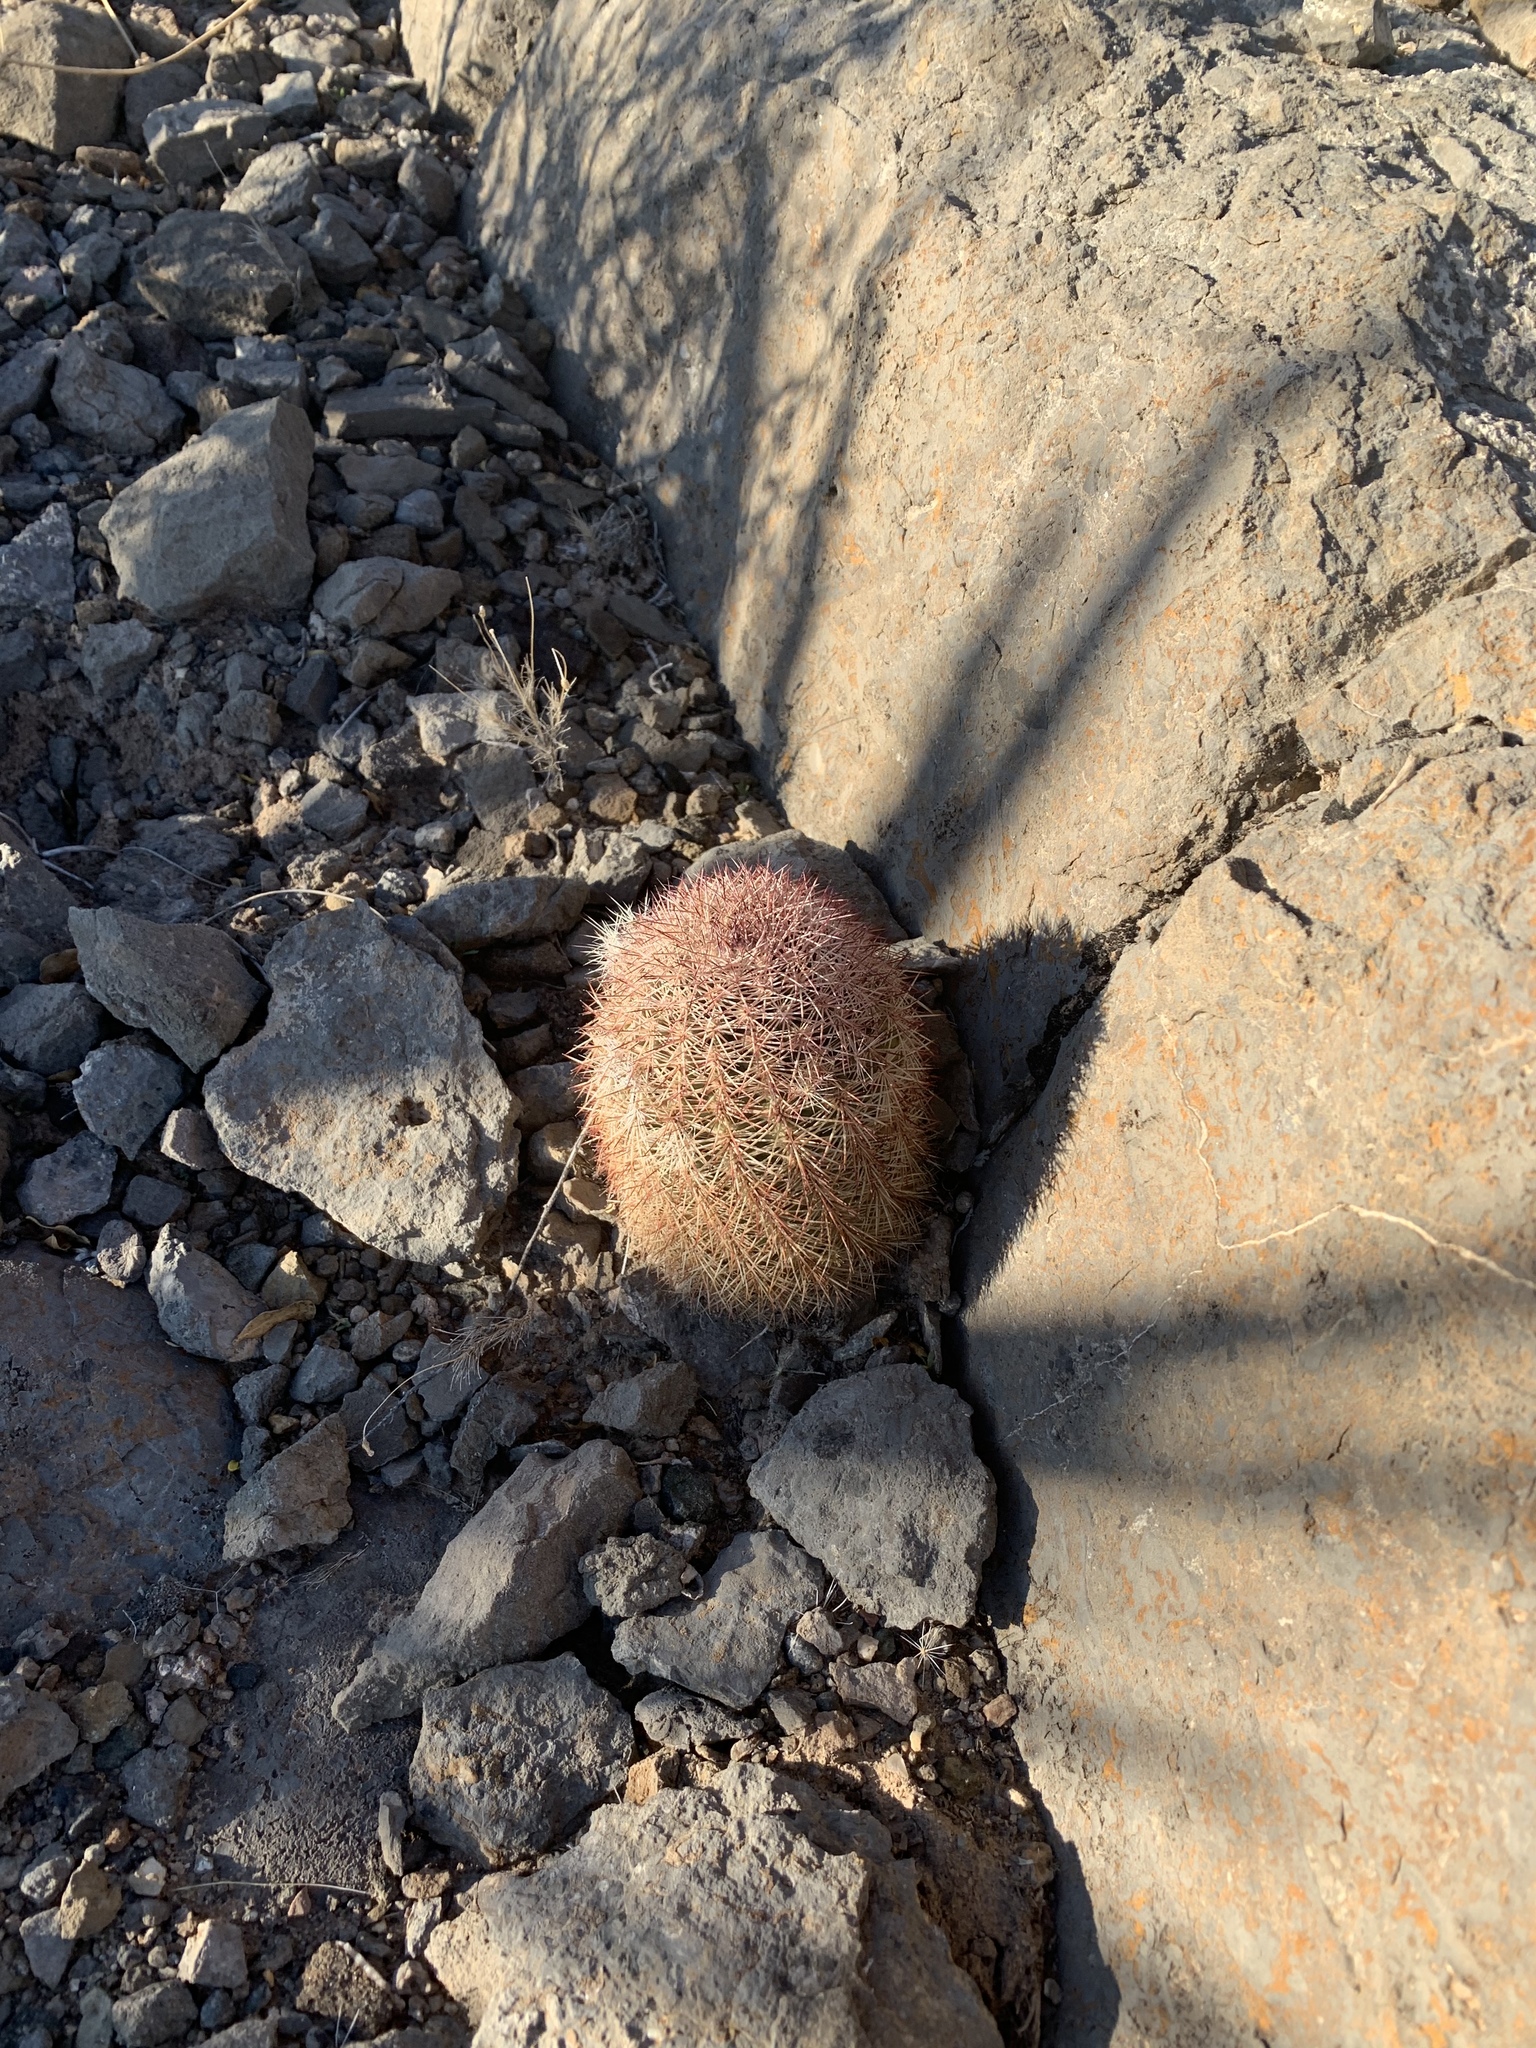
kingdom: Plantae
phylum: Tracheophyta
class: Magnoliopsida
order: Caryophyllales
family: Cactaceae
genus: Echinocereus
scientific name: Echinocereus dasyacanthus
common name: Spiny hedgehog cactus
